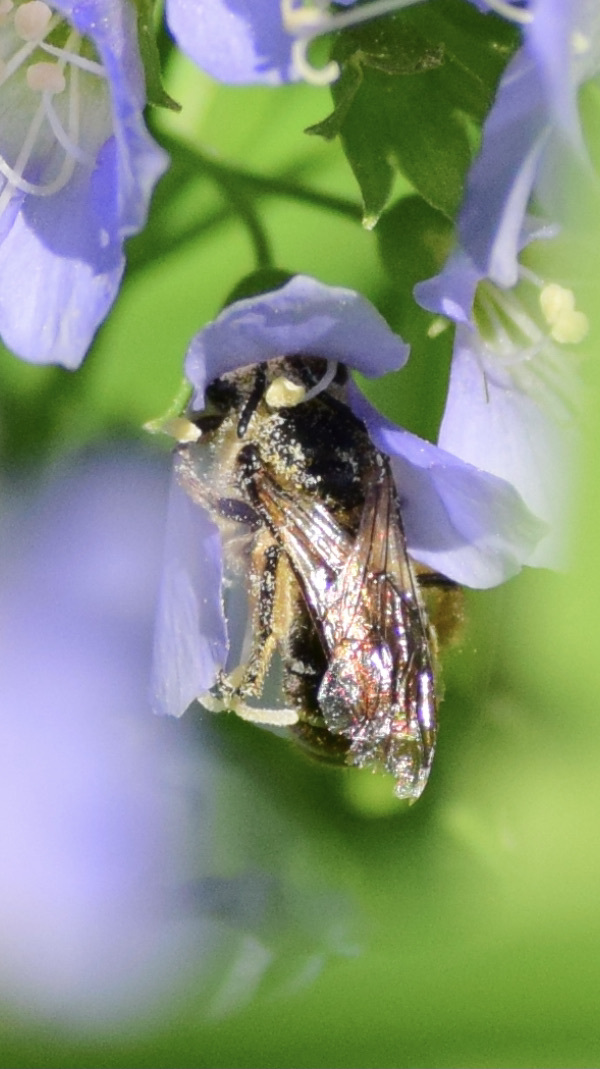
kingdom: Animalia
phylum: Arthropoda
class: Insecta
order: Hymenoptera
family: Colletidae
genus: Colletes
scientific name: Colletes inaequalis
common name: Unequal cellophane bee
